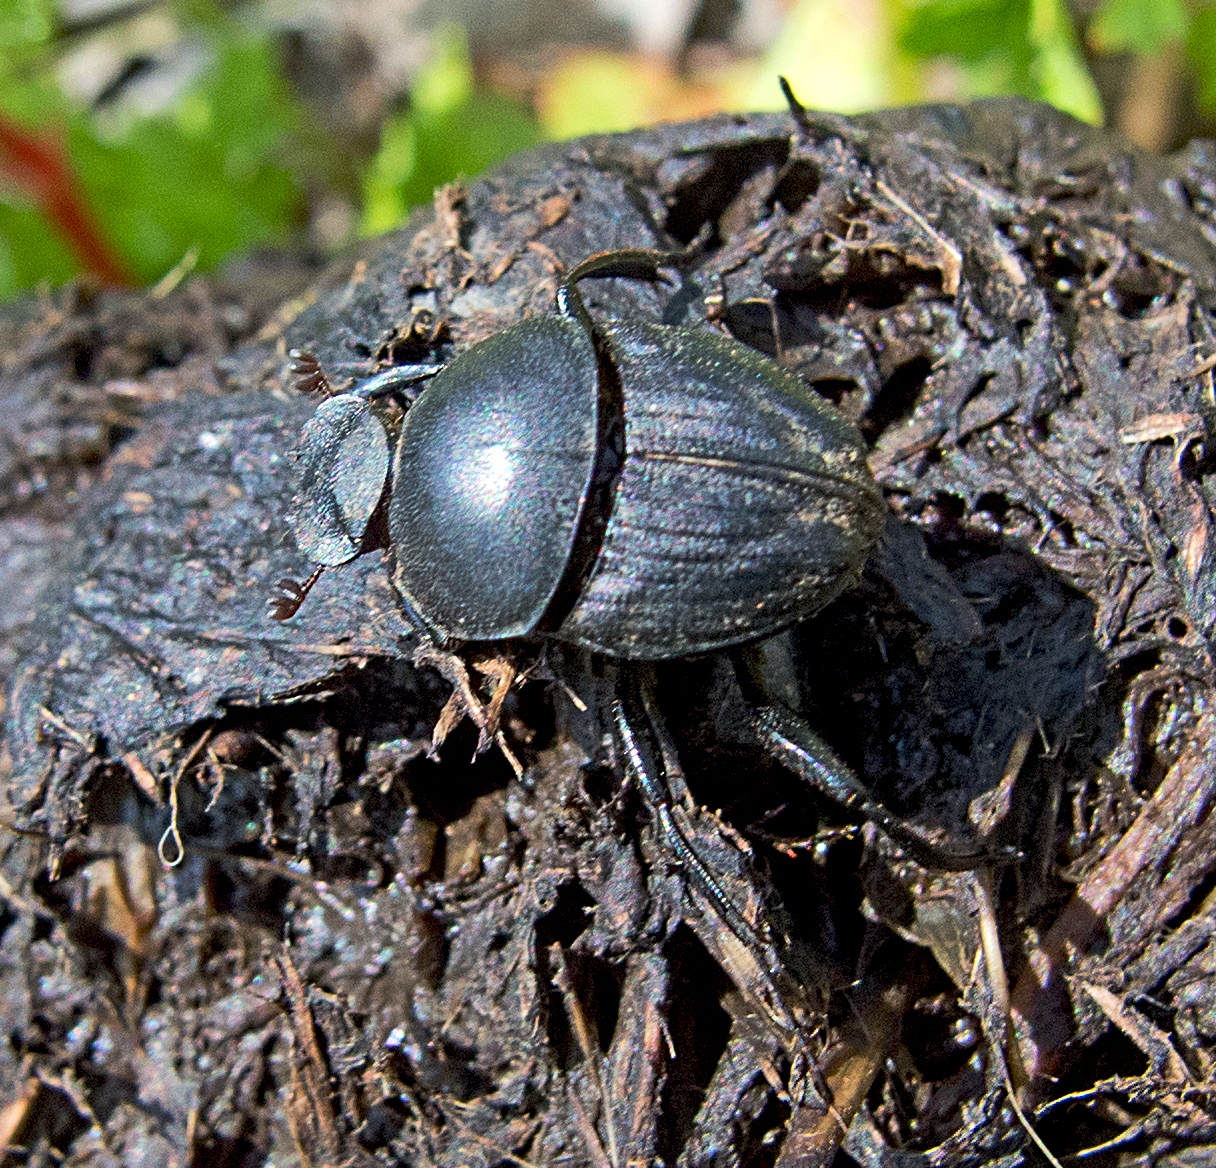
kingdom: Animalia
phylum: Arthropoda
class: Insecta
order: Coleoptera
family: Scarabaeidae
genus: Sisyphus
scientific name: Sisyphus schaefferi
